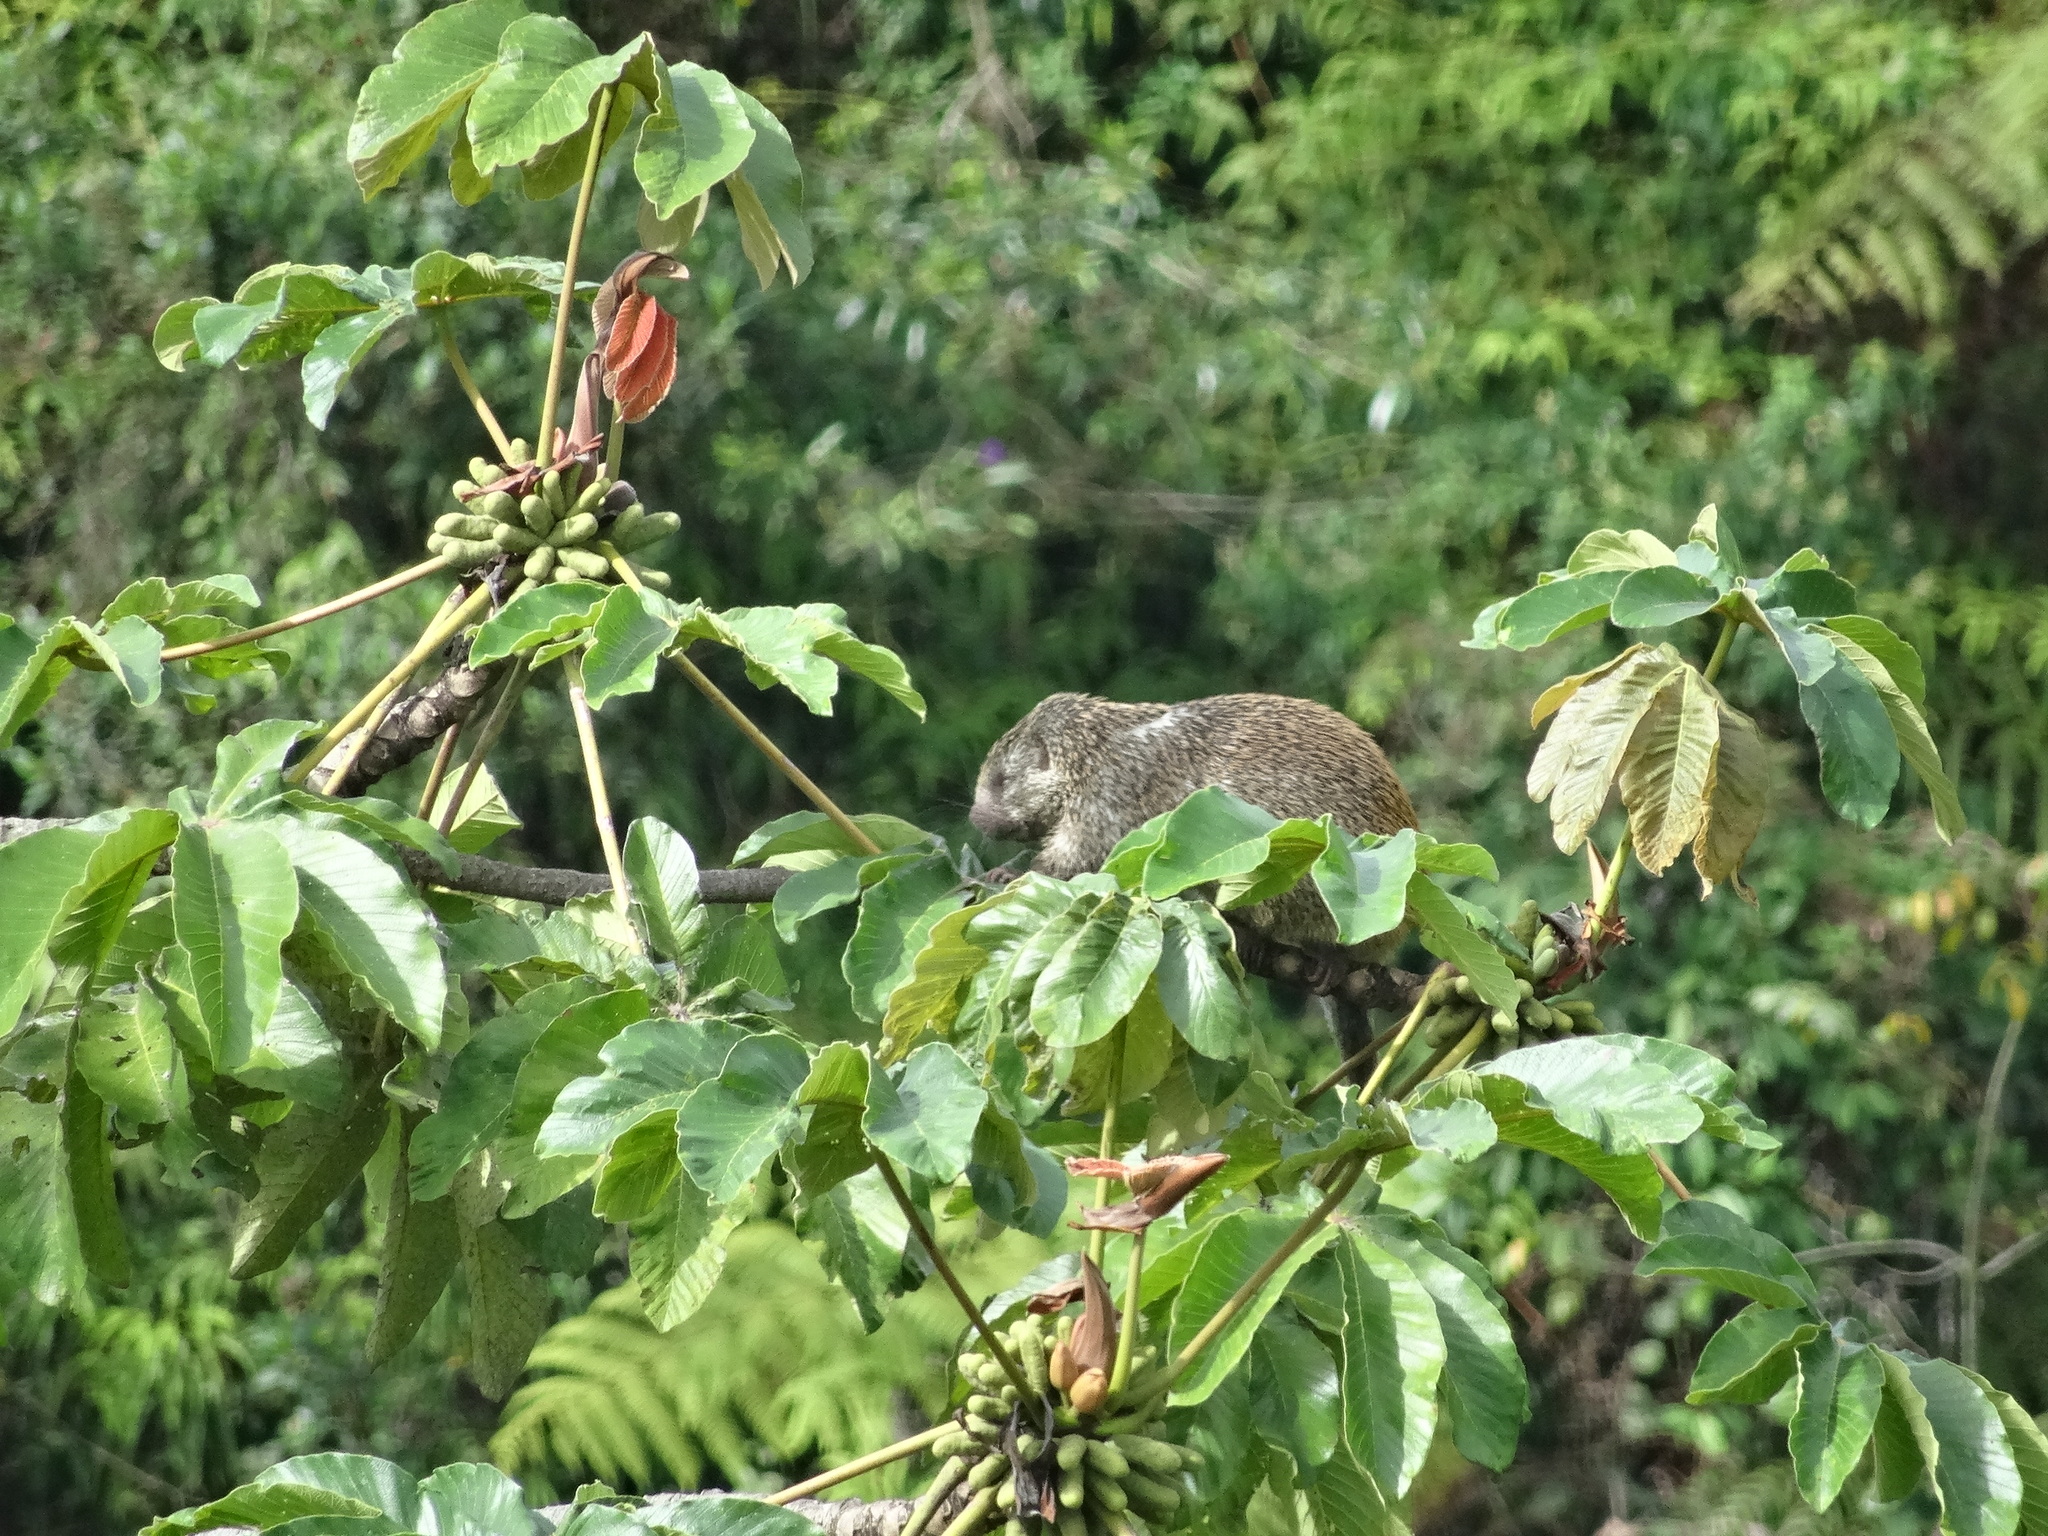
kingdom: Animalia
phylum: Chordata
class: Mammalia
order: Rodentia
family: Erethizontidae
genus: Echinoprocta
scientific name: Echinoprocta rufescens
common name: Stump-tailed porcupine
